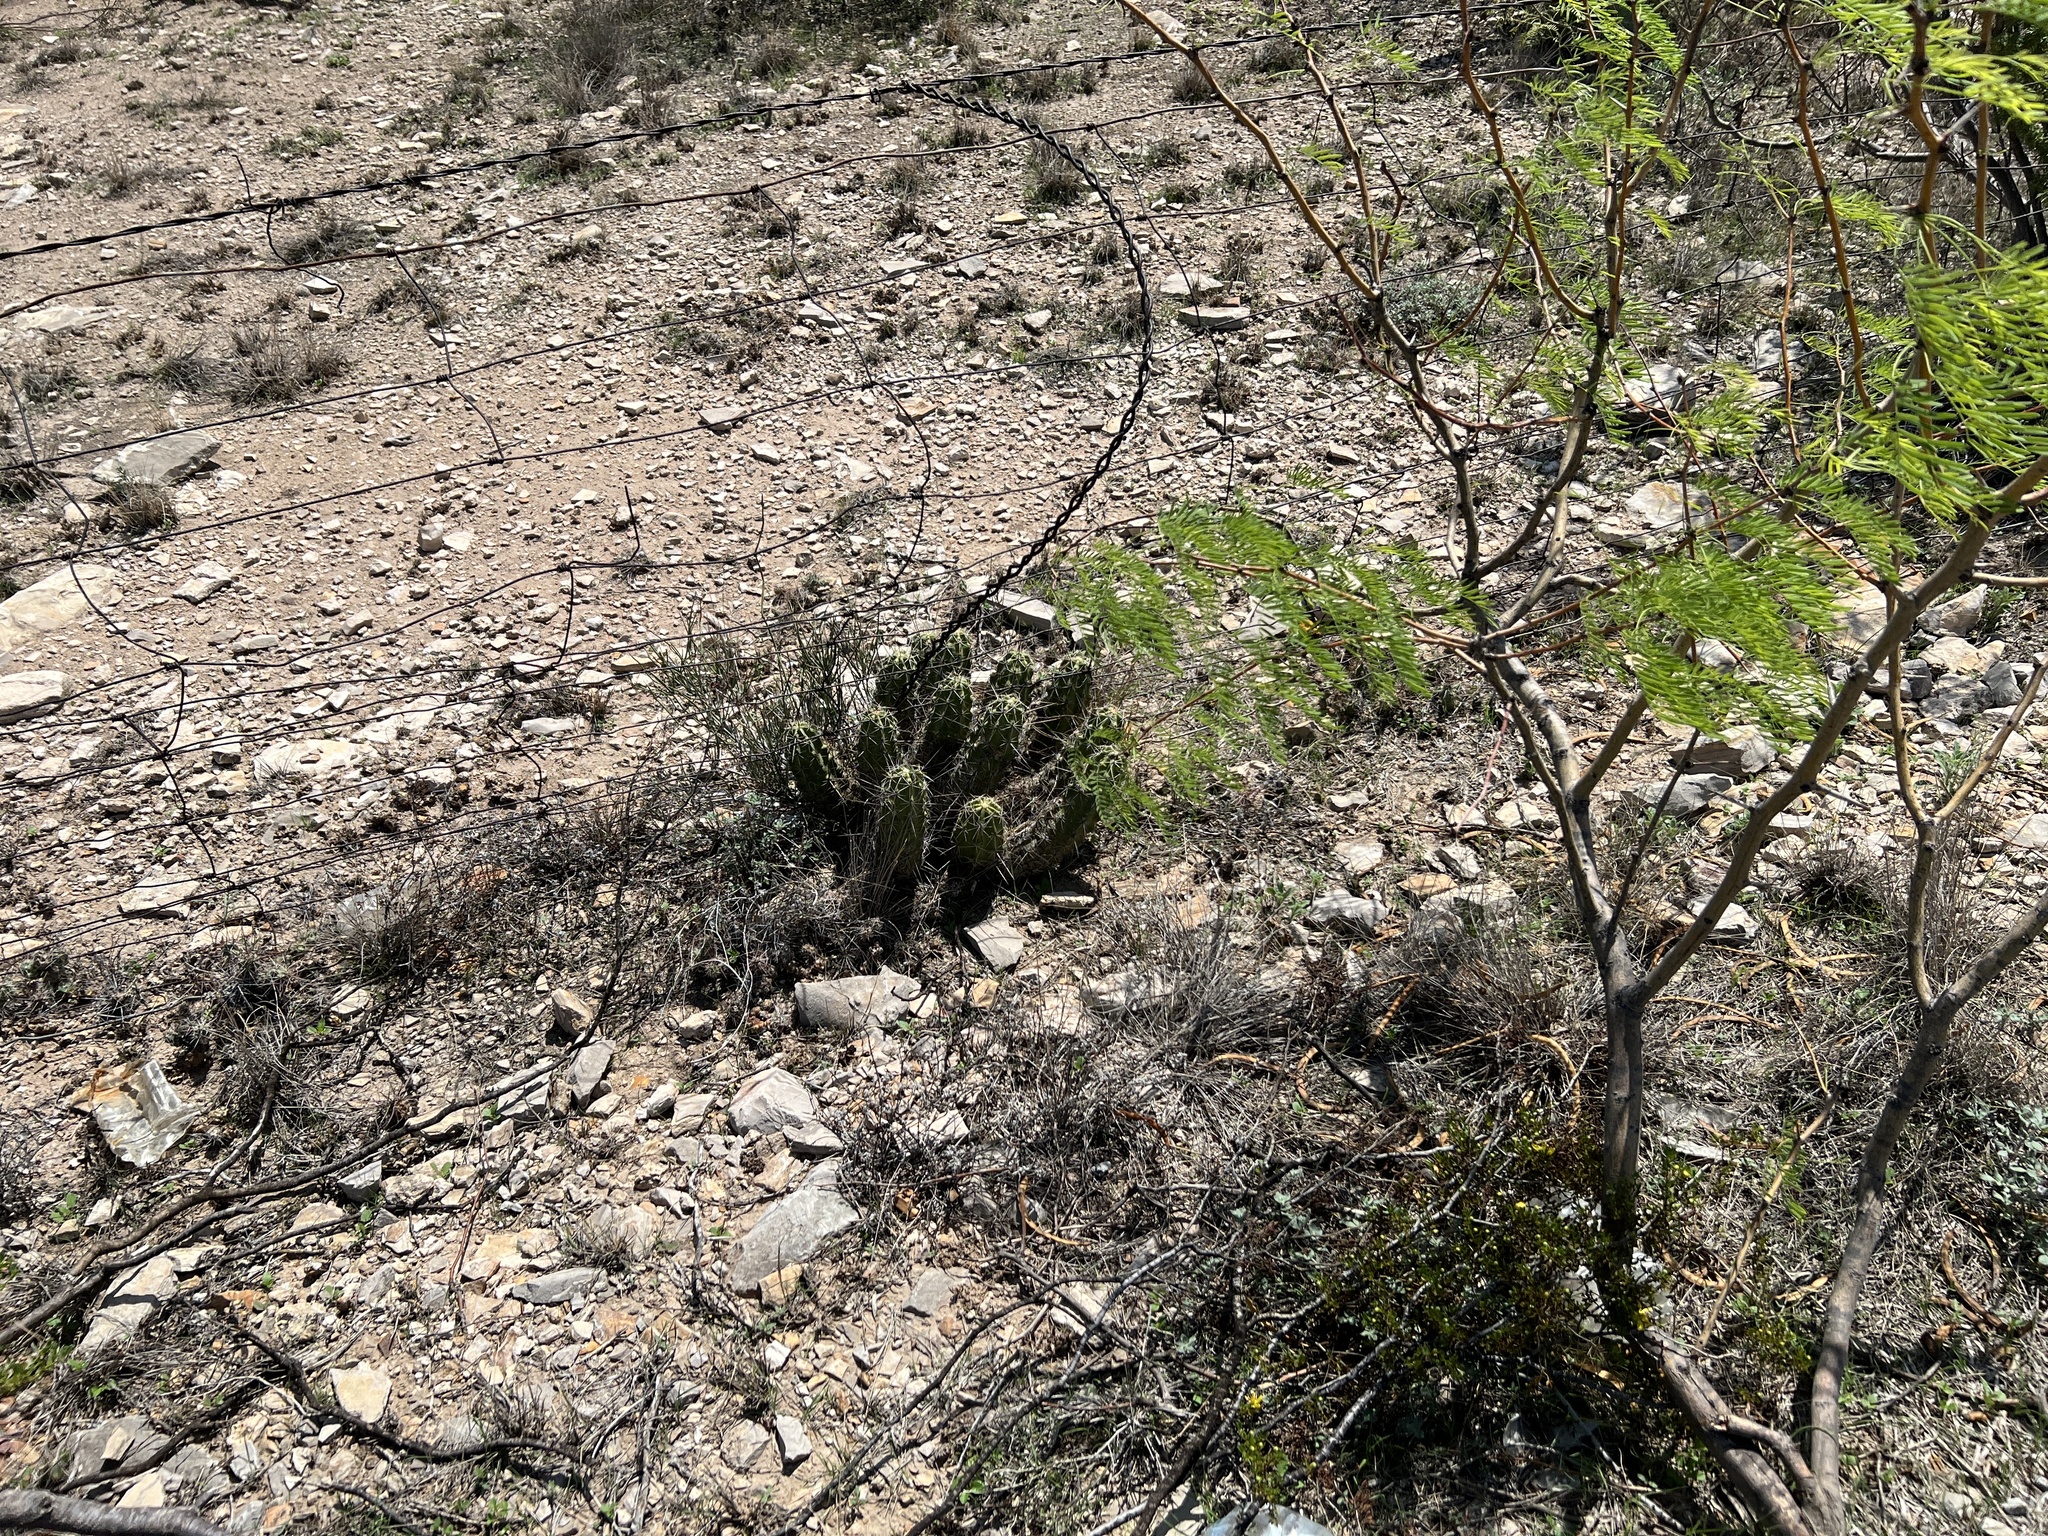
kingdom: Plantae
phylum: Tracheophyta
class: Magnoliopsida
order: Caryophyllales
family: Cactaceae
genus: Echinocereus
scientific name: Echinocereus enneacanthus
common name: Pitaya
